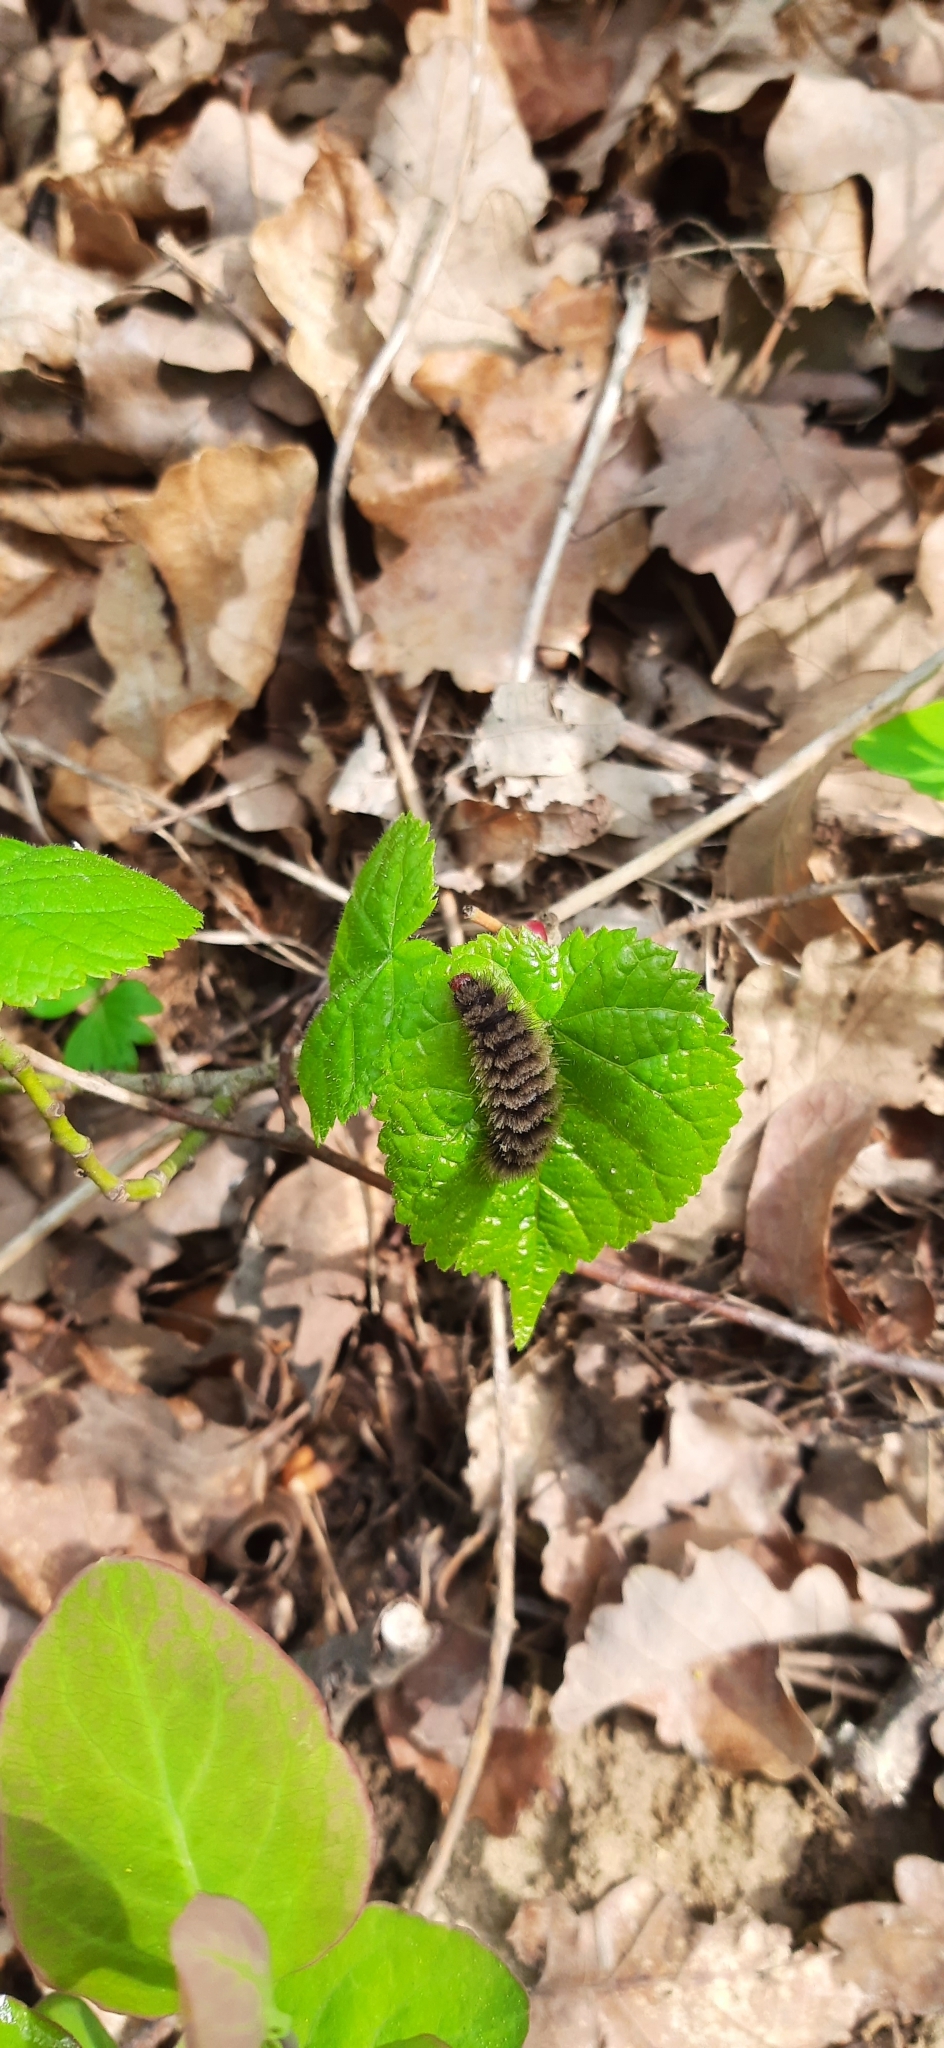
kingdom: Animalia
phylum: Arthropoda
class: Insecta
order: Lepidoptera
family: Erebidae
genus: Amata
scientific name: Amata phegea
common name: Nine-spotted
